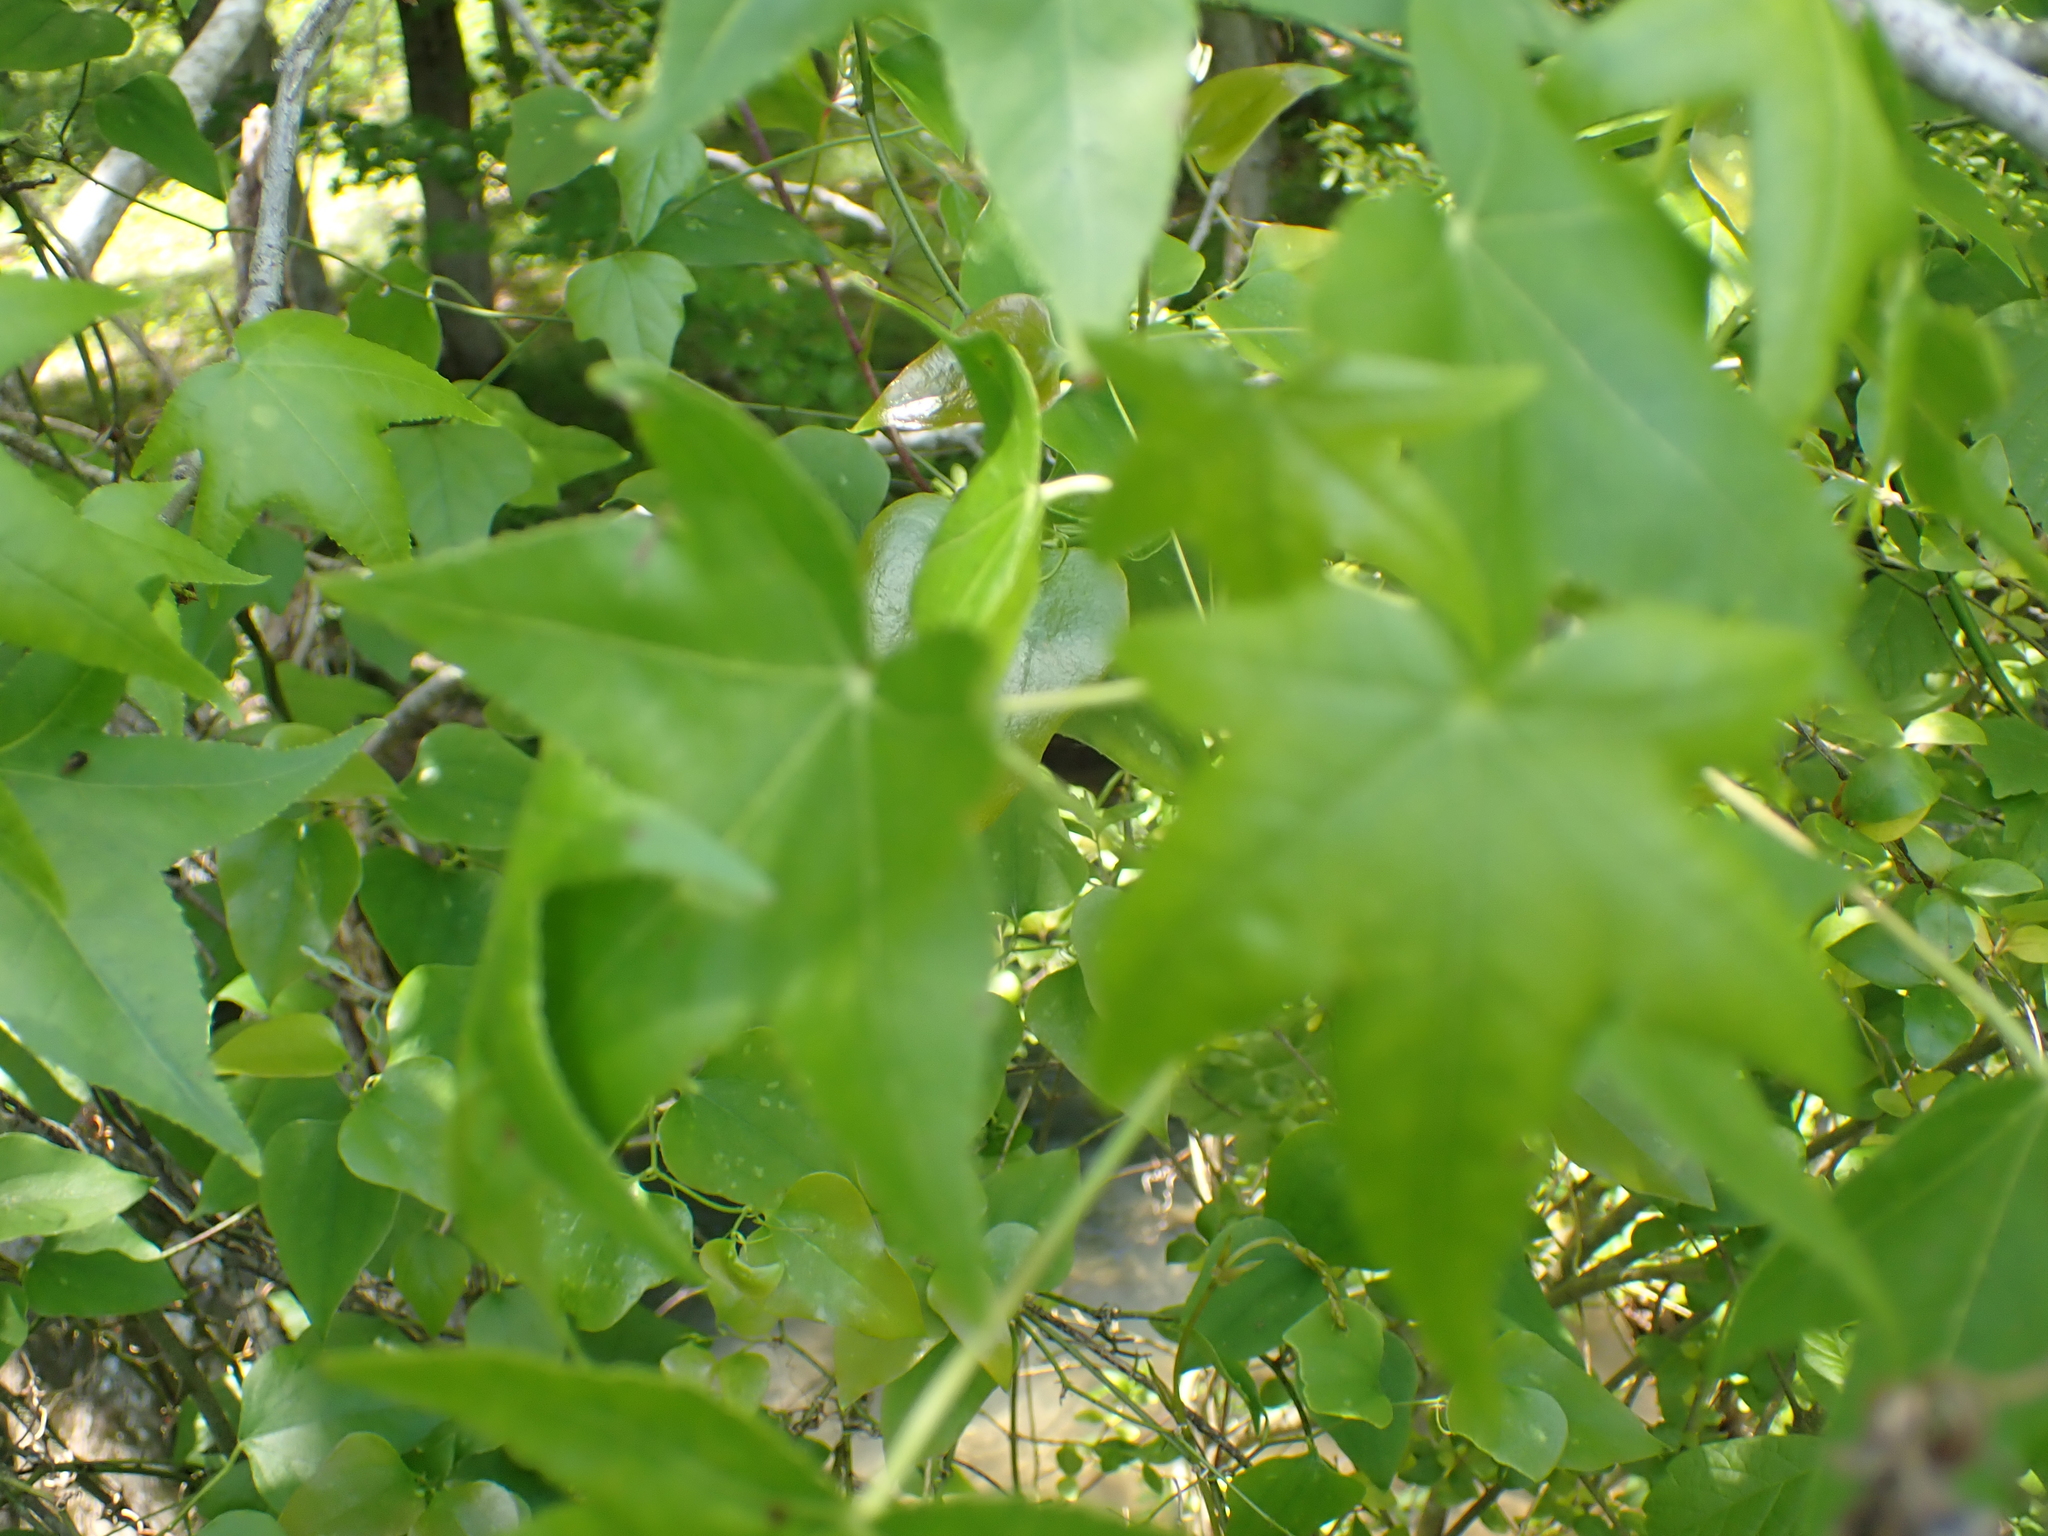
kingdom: Plantae
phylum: Tracheophyta
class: Magnoliopsida
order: Saxifragales
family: Altingiaceae
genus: Liquidambar
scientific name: Liquidambar styraciflua
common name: Sweet gum
